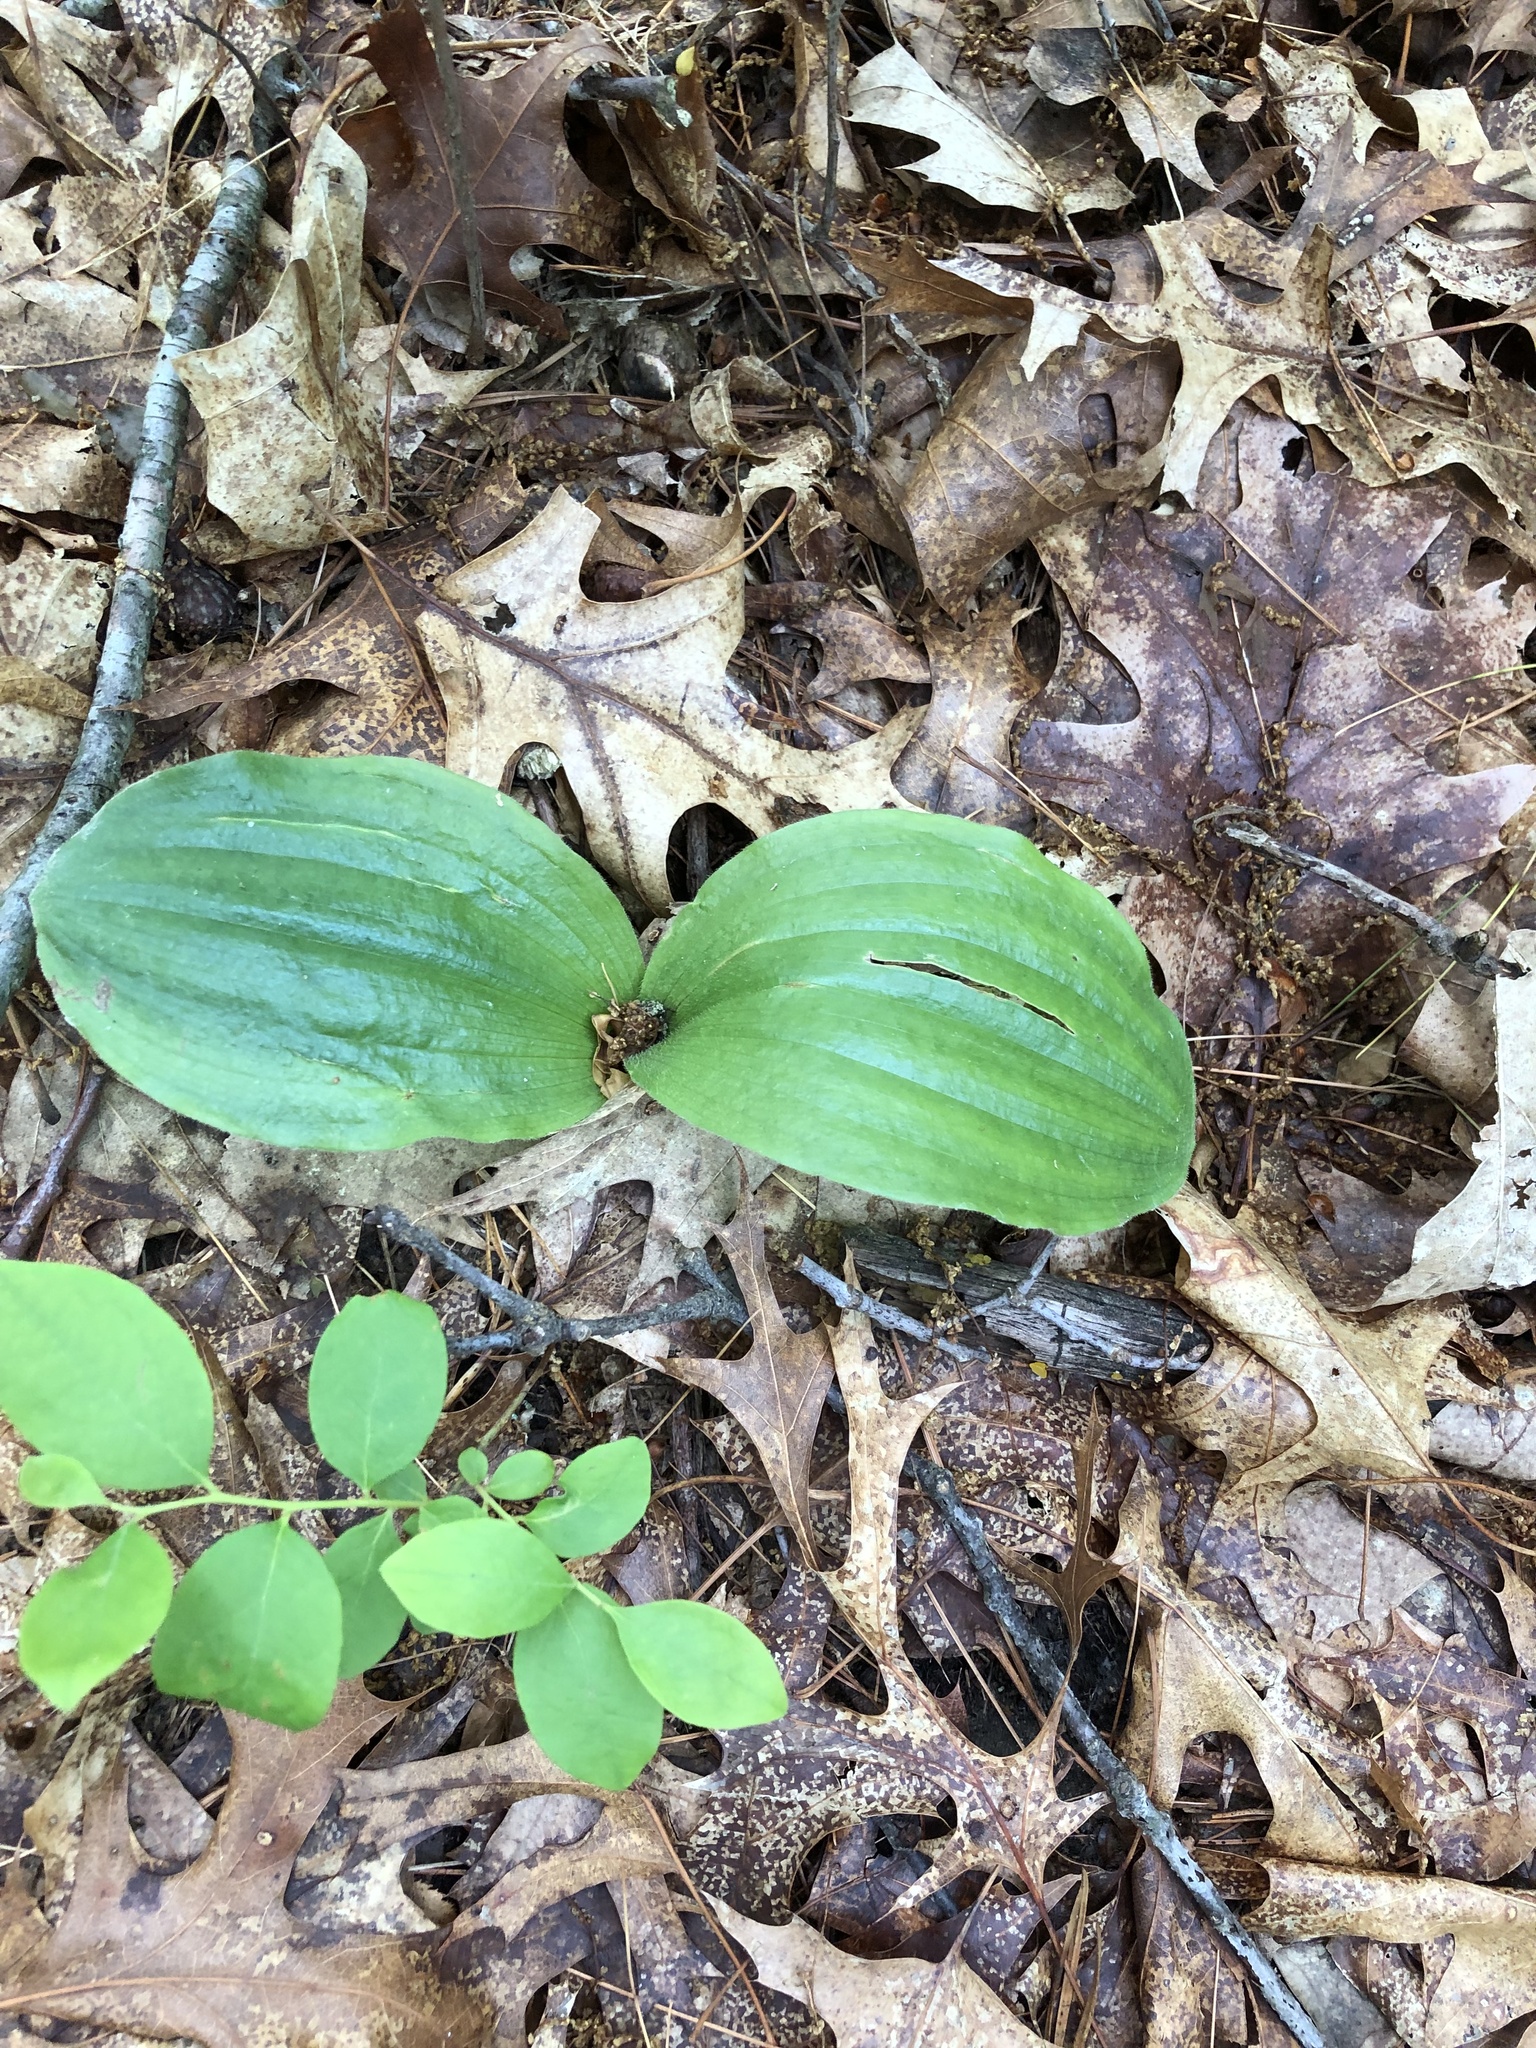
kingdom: Plantae
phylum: Tracheophyta
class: Liliopsida
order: Asparagales
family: Orchidaceae
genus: Cypripedium
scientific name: Cypripedium acaule
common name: Pink lady's-slipper
